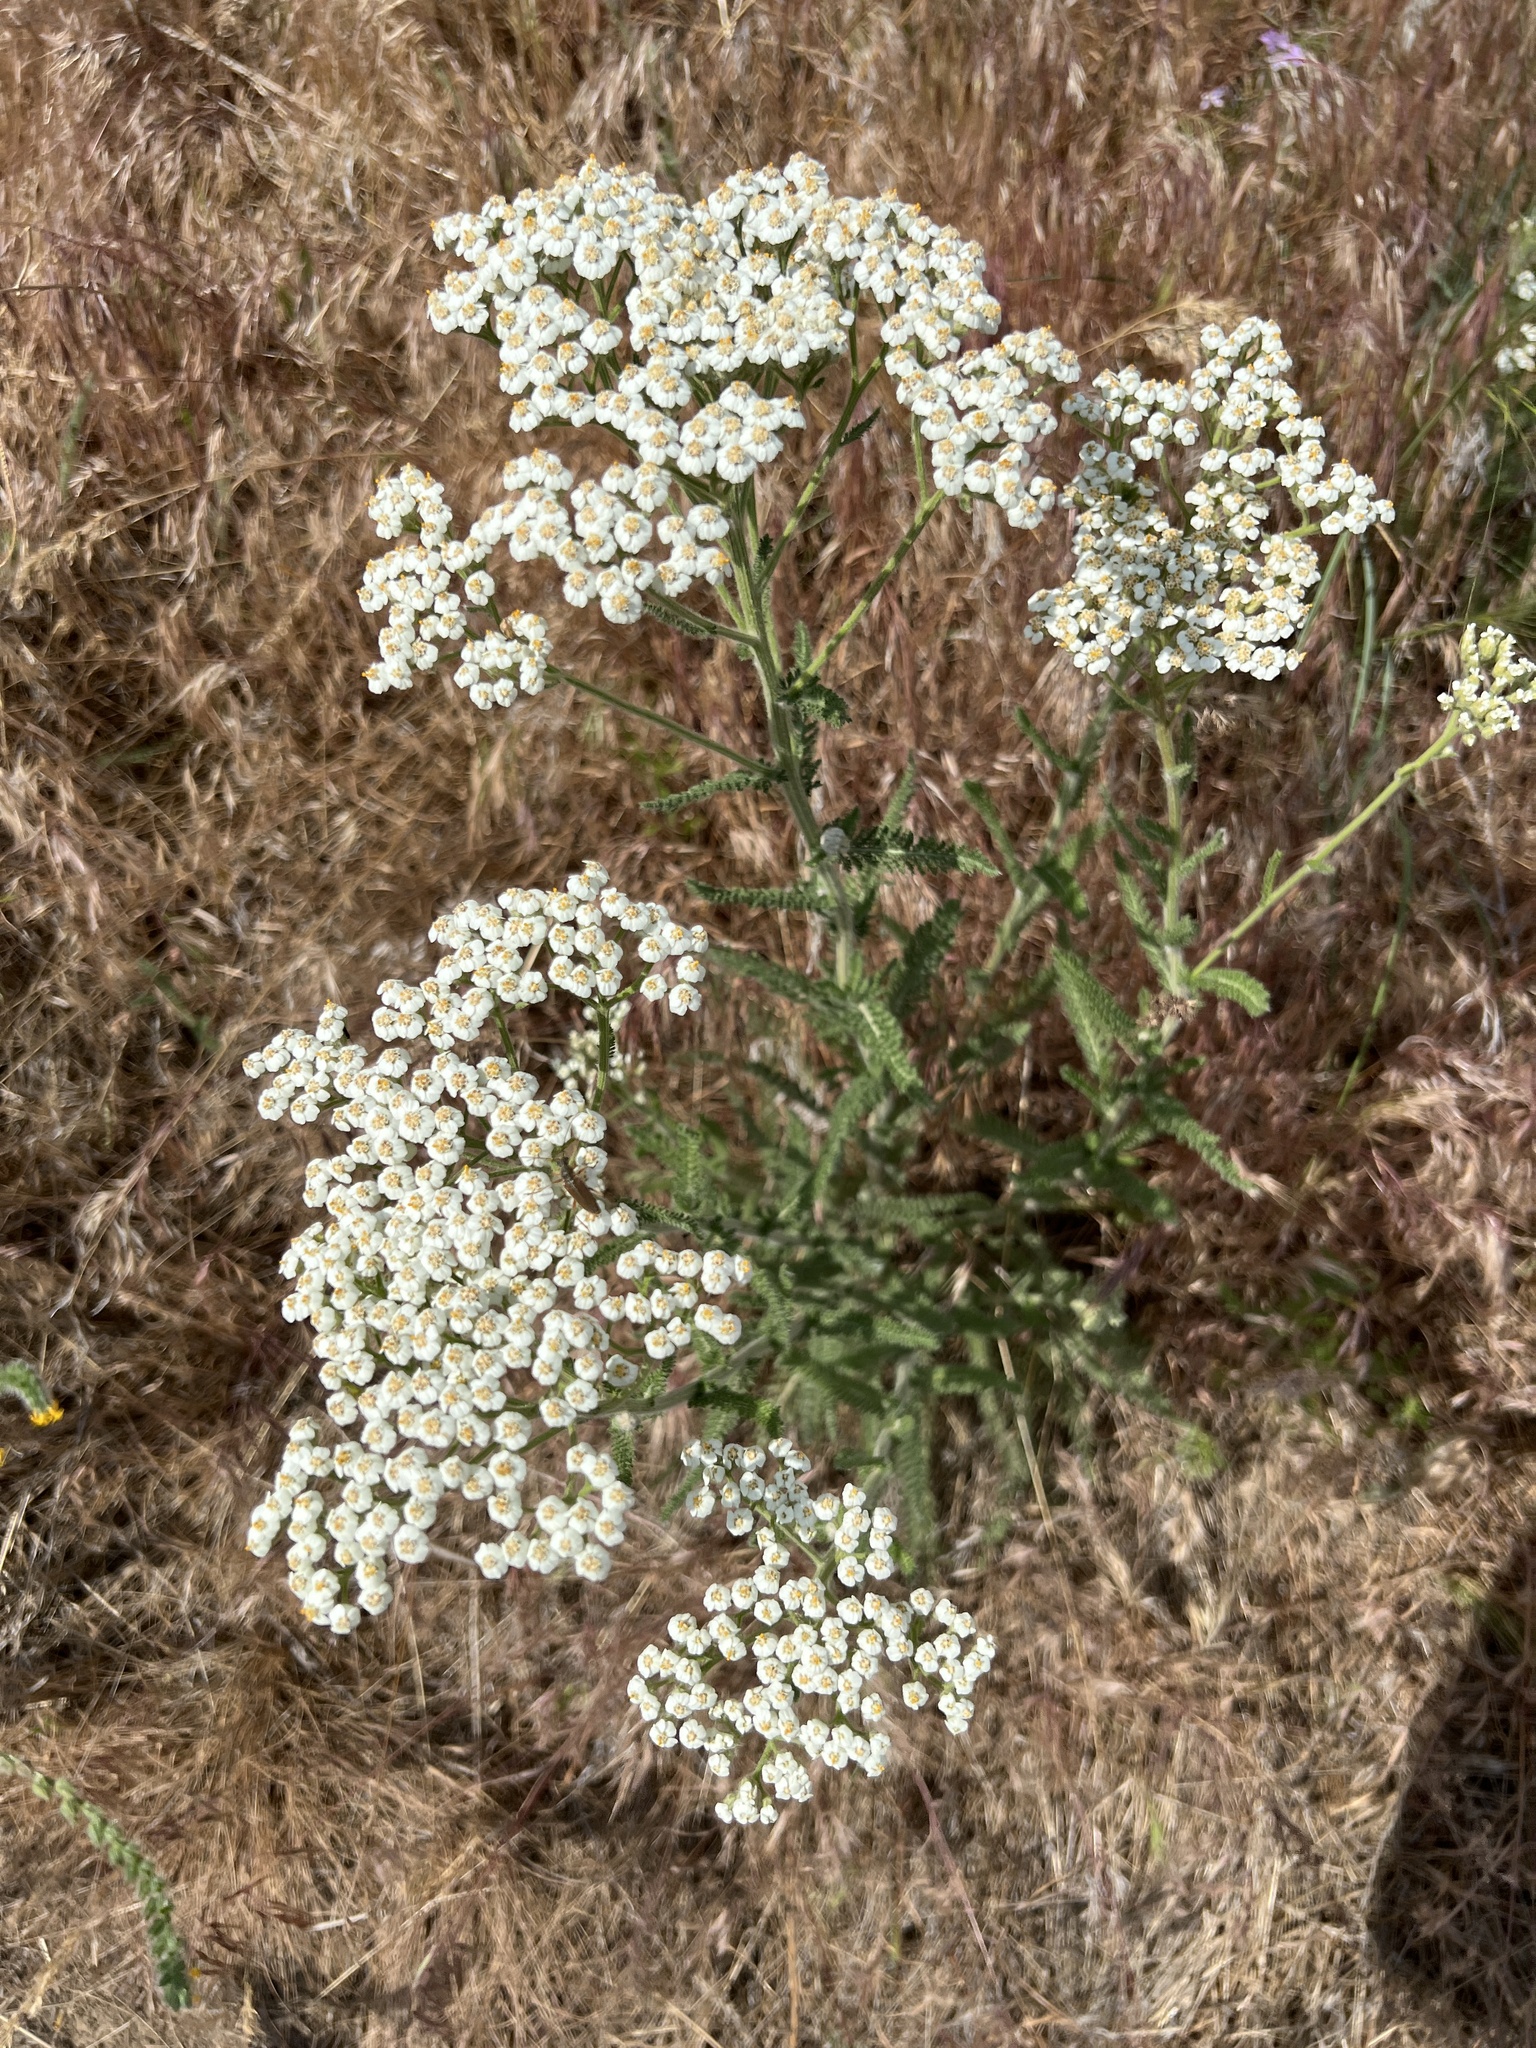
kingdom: Plantae
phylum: Tracheophyta
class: Magnoliopsida
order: Asterales
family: Asteraceae
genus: Achillea
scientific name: Achillea millefolium
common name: Yarrow
